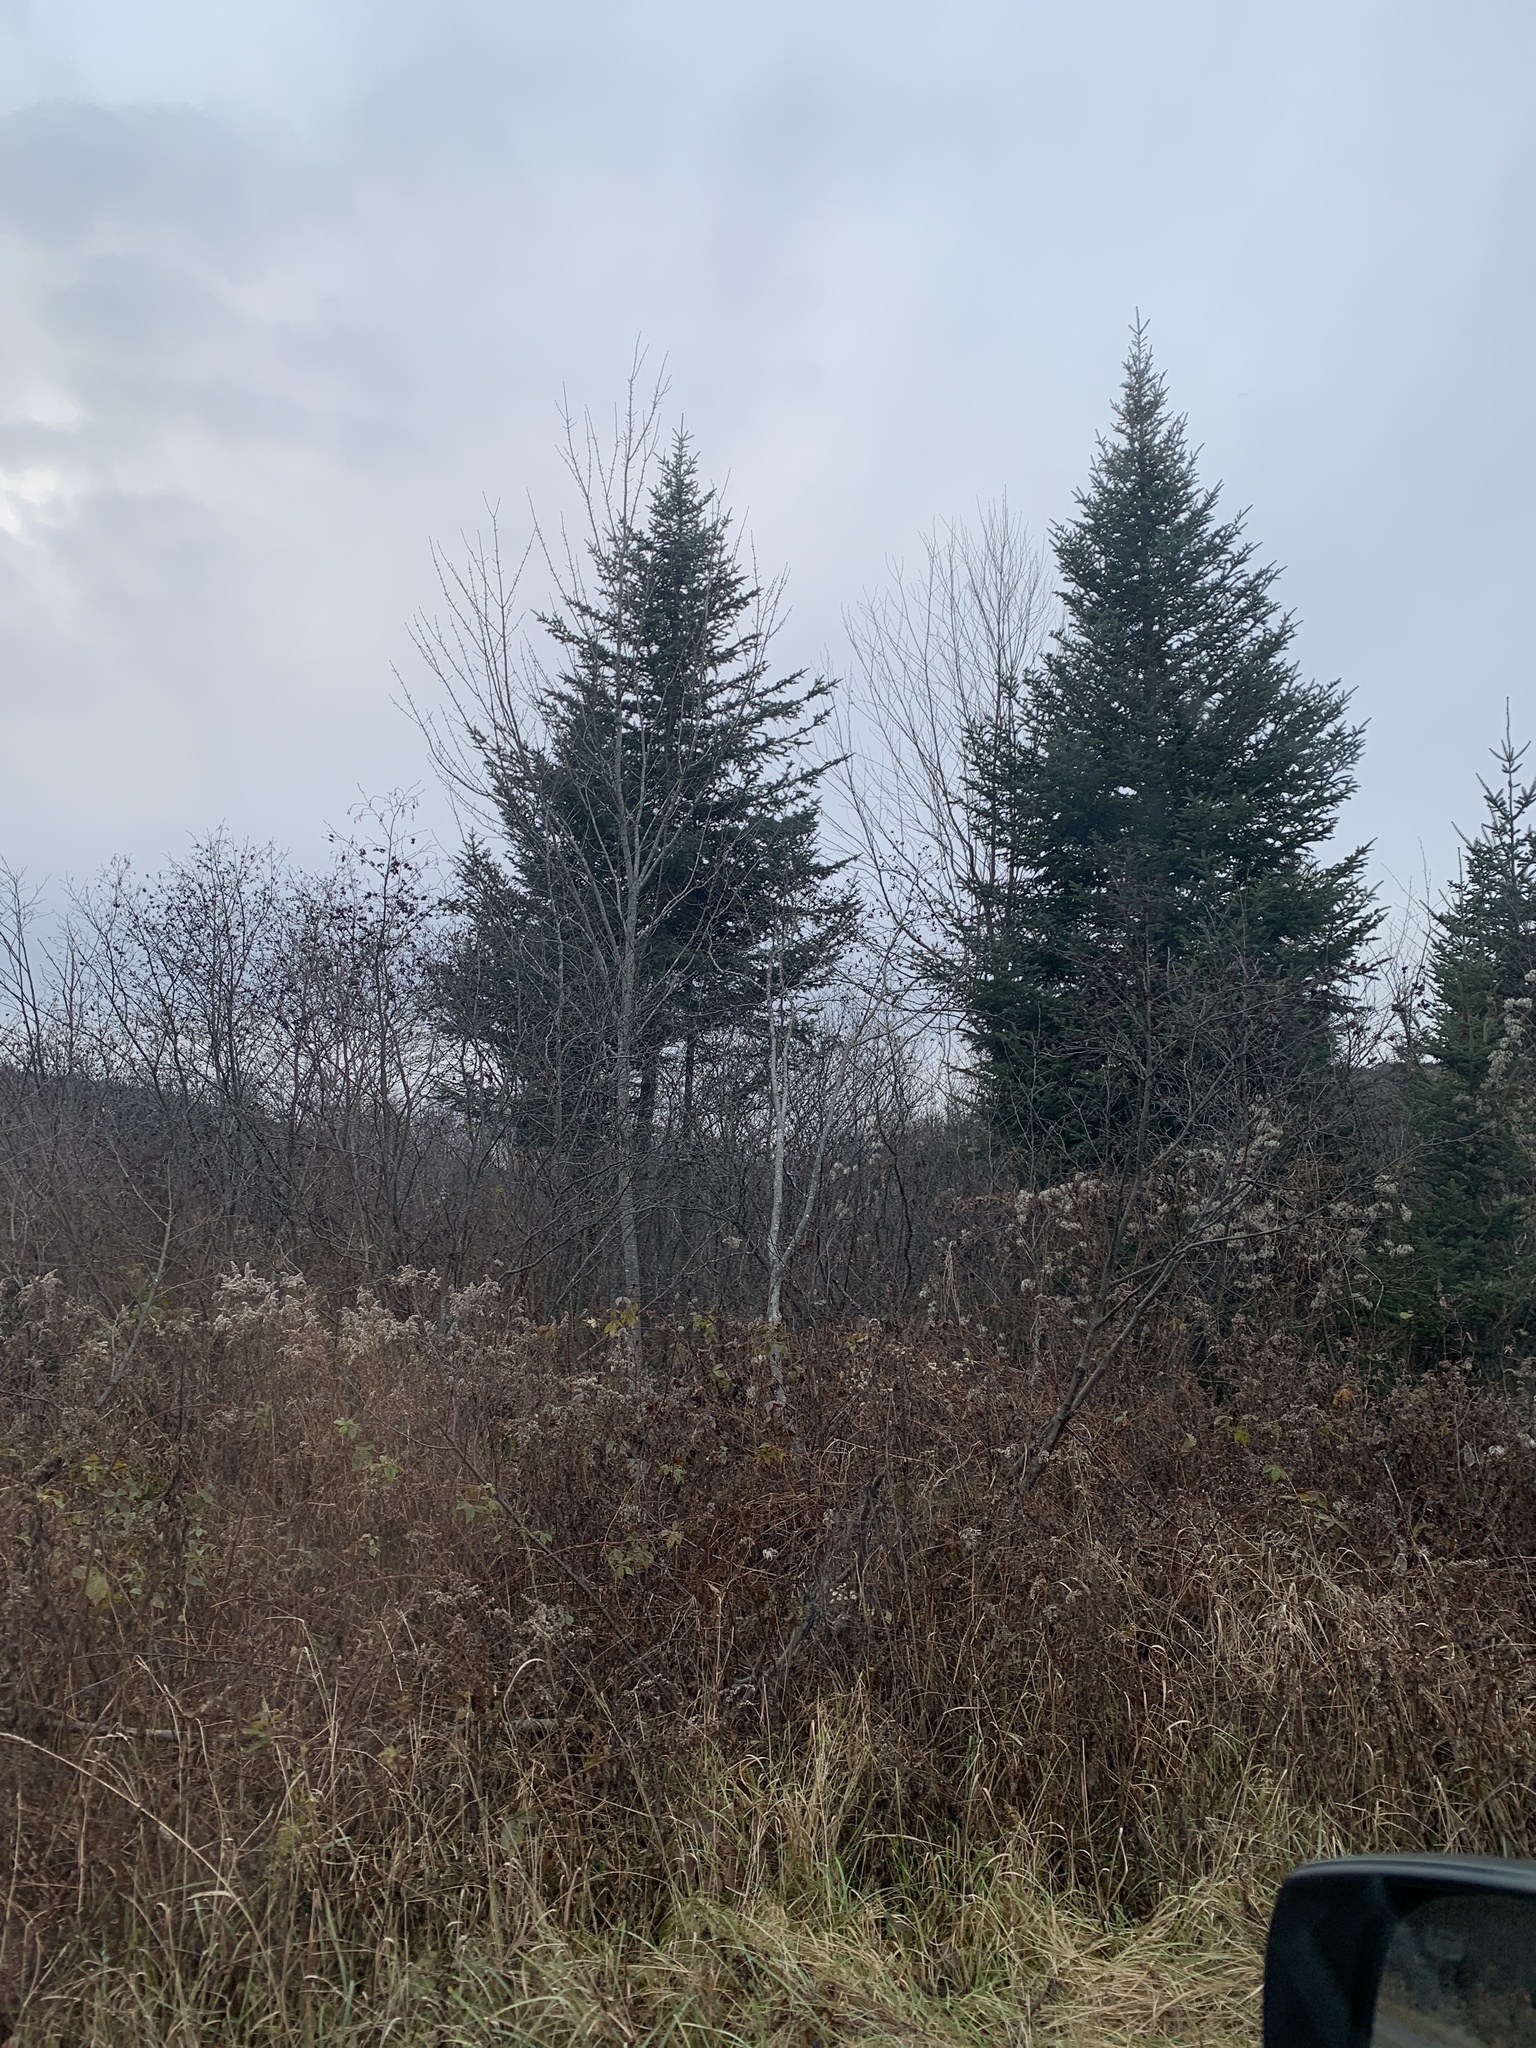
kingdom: Plantae
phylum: Tracheophyta
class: Magnoliopsida
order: Fagales
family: Betulaceae
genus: Alnus
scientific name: Alnus incana
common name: Grey alder
